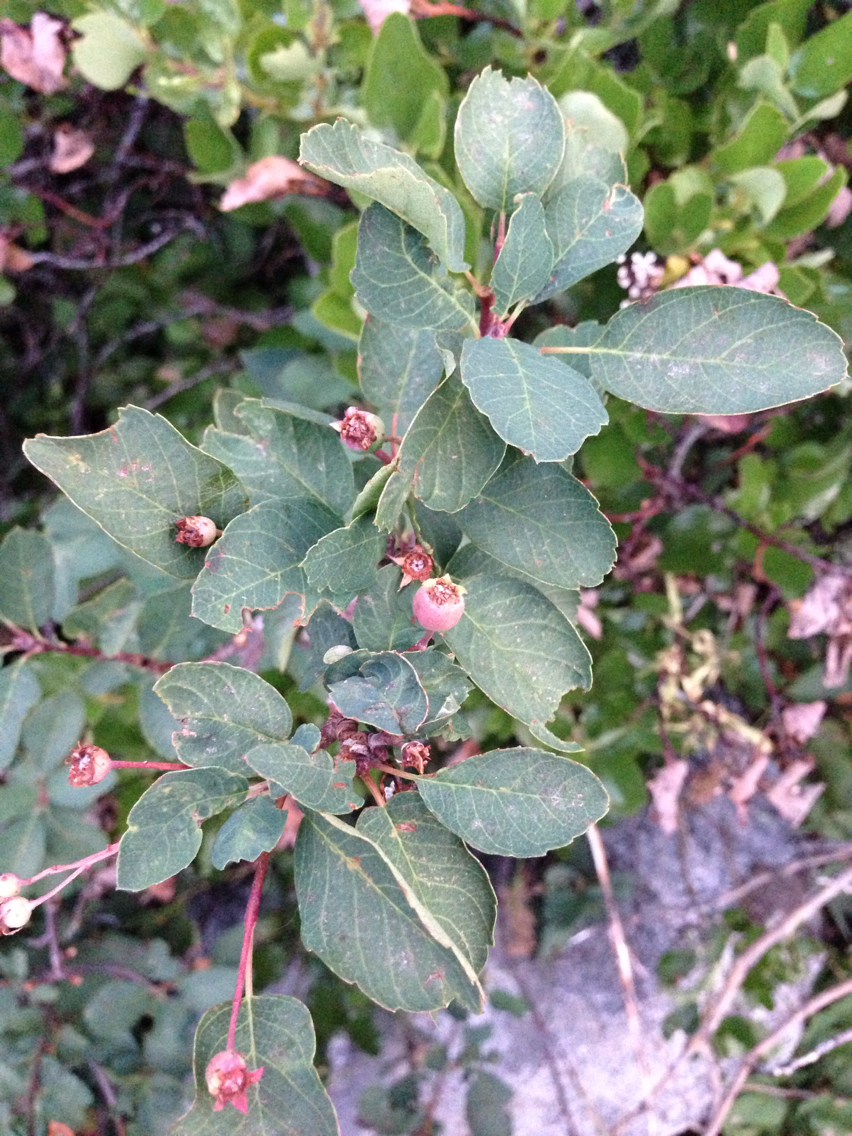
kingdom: Plantae
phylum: Tracheophyta
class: Magnoliopsida
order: Rosales
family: Rosaceae
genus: Amelanchier
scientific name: Amelanchier utahensis
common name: Utah serviceberry
